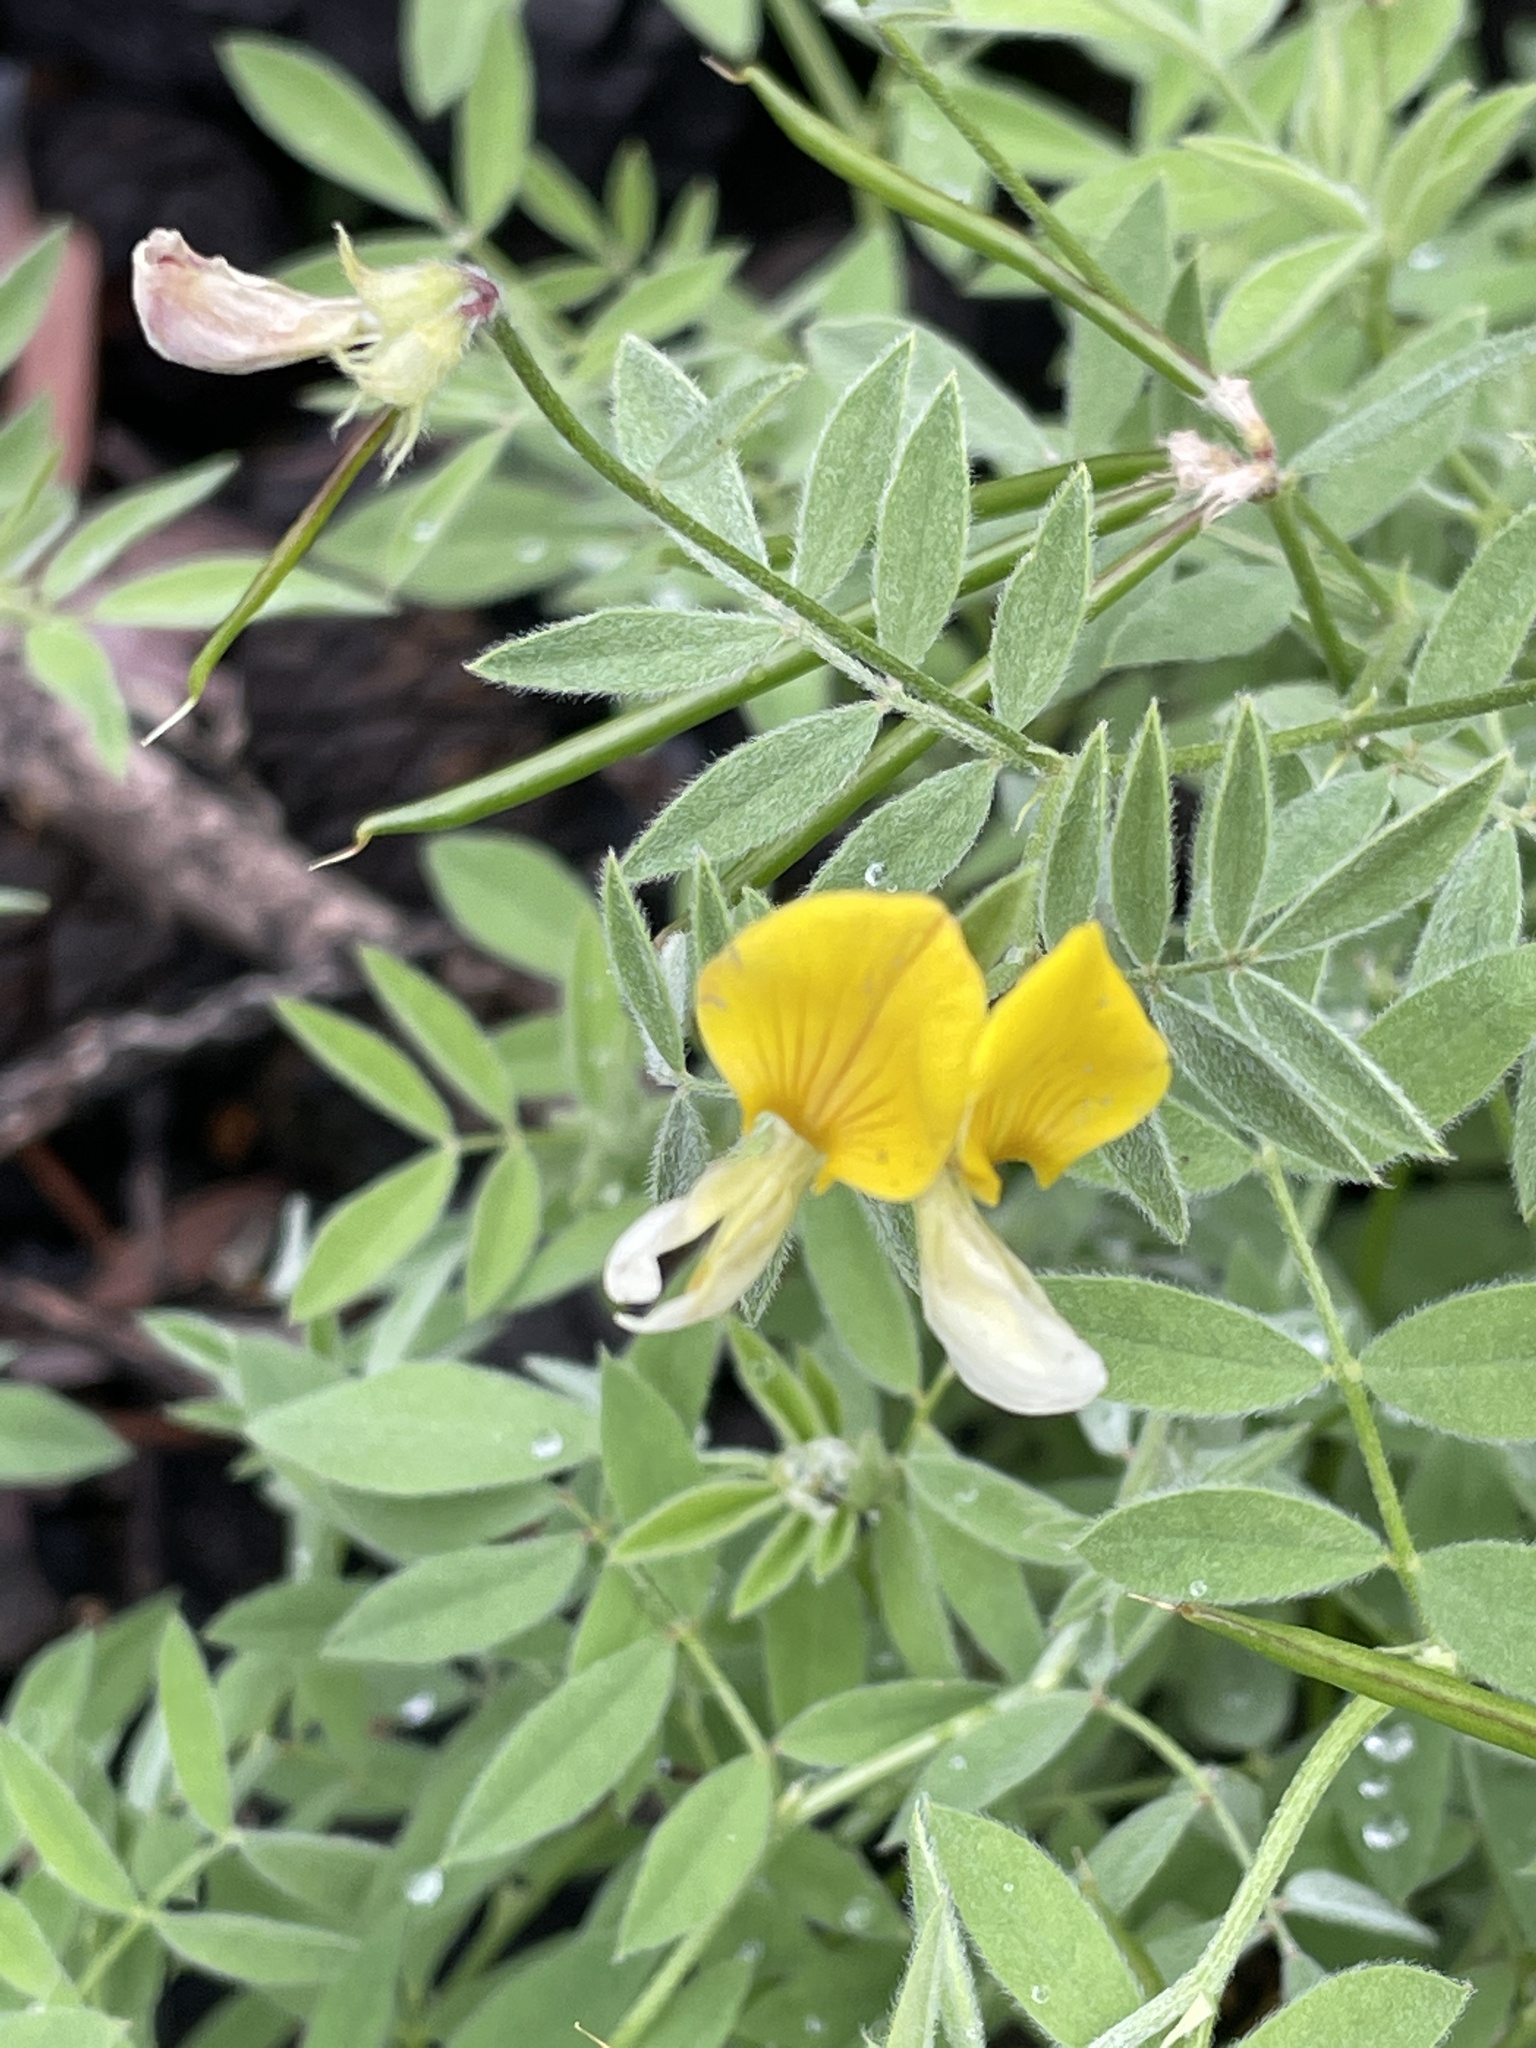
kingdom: Plantae
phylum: Tracheophyta
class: Magnoliopsida
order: Fabales
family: Fabaceae
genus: Hosackia
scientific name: Hosackia oblongifolia
